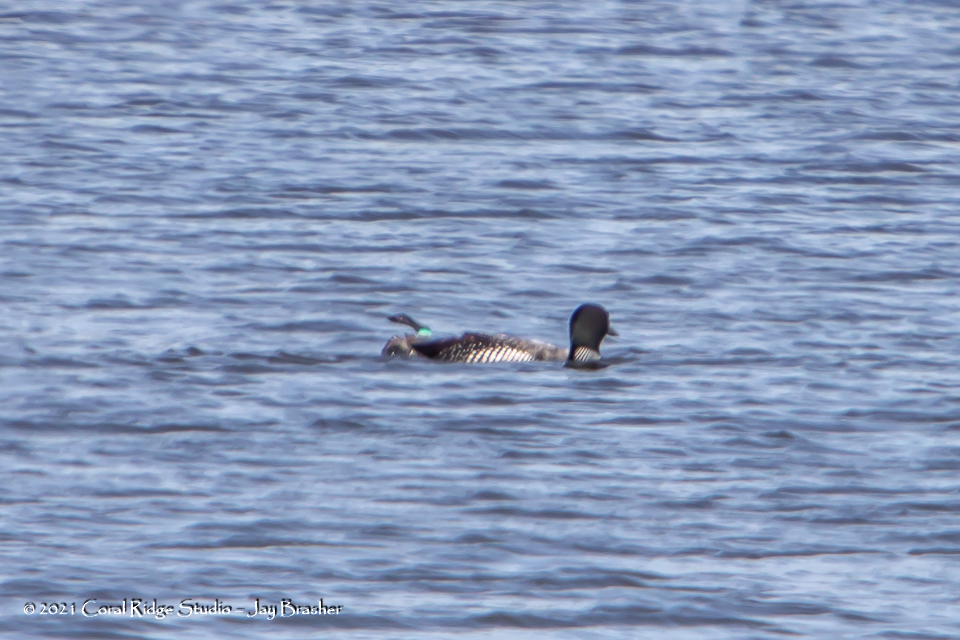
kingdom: Animalia
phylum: Chordata
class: Aves
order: Gaviiformes
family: Gaviidae
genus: Gavia
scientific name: Gavia immer
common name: Common loon
